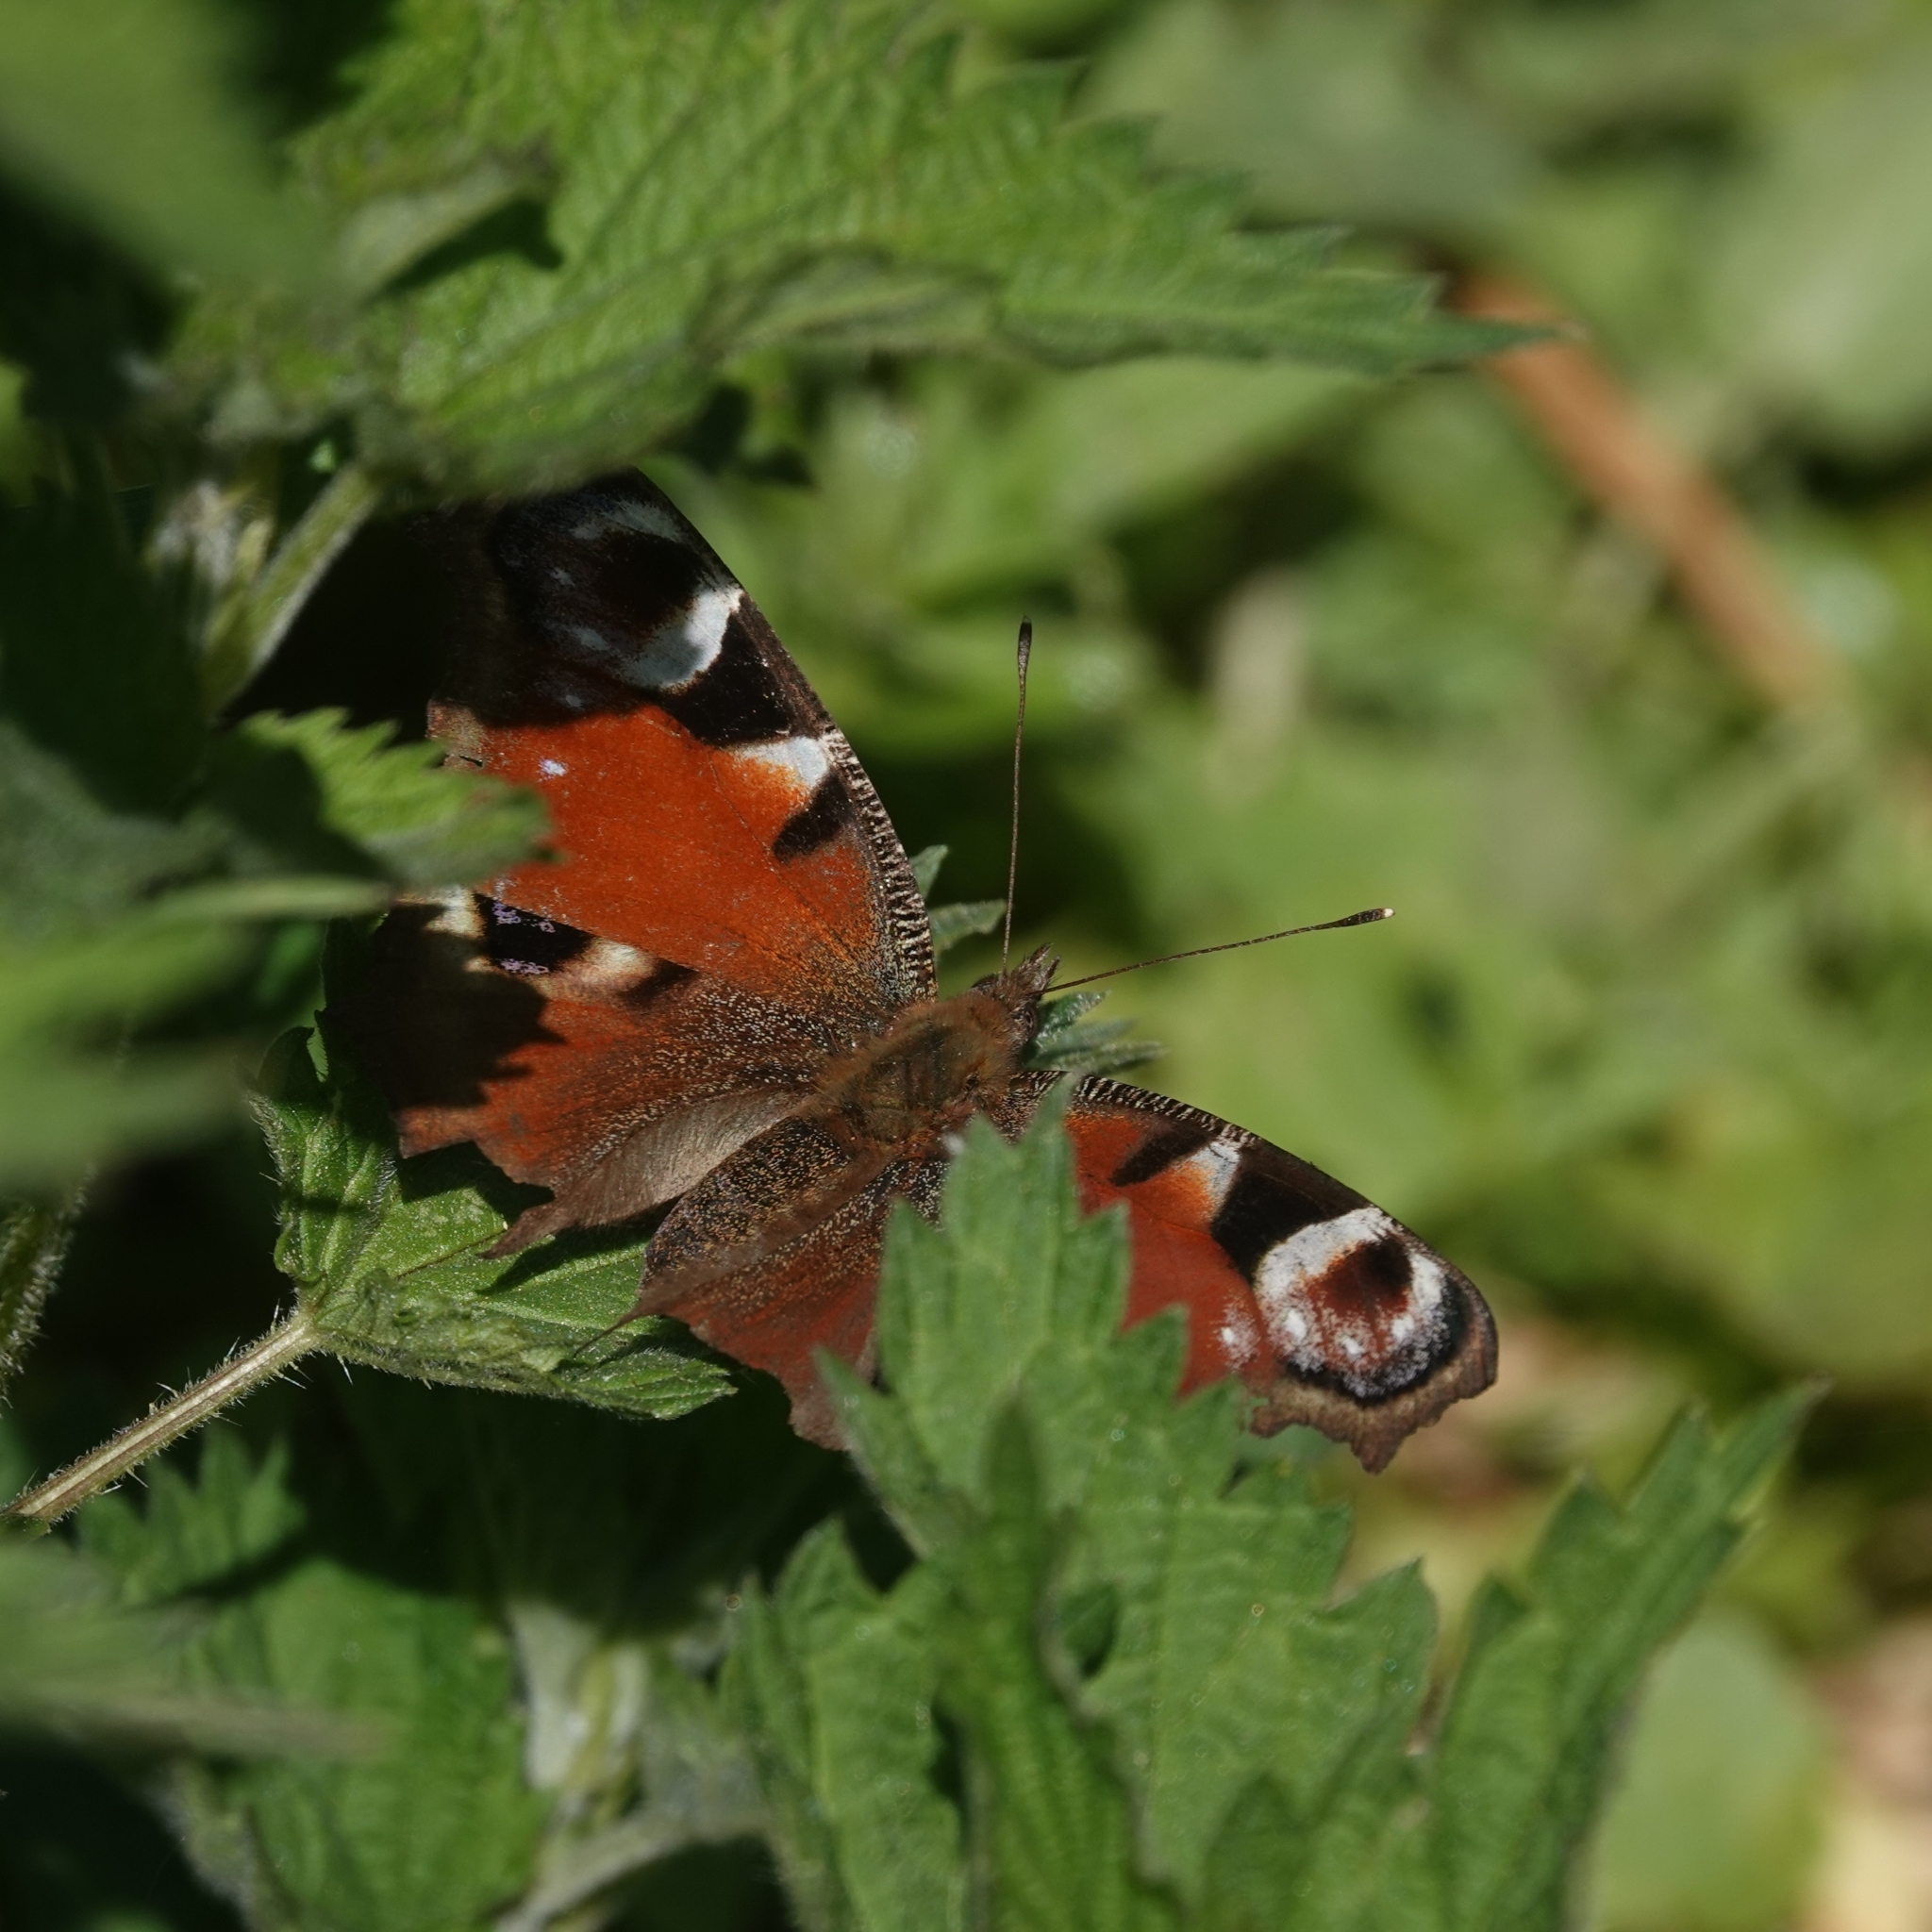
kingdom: Animalia
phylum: Arthropoda
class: Insecta
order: Lepidoptera
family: Nymphalidae
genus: Aglais
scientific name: Aglais io
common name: Peacock
